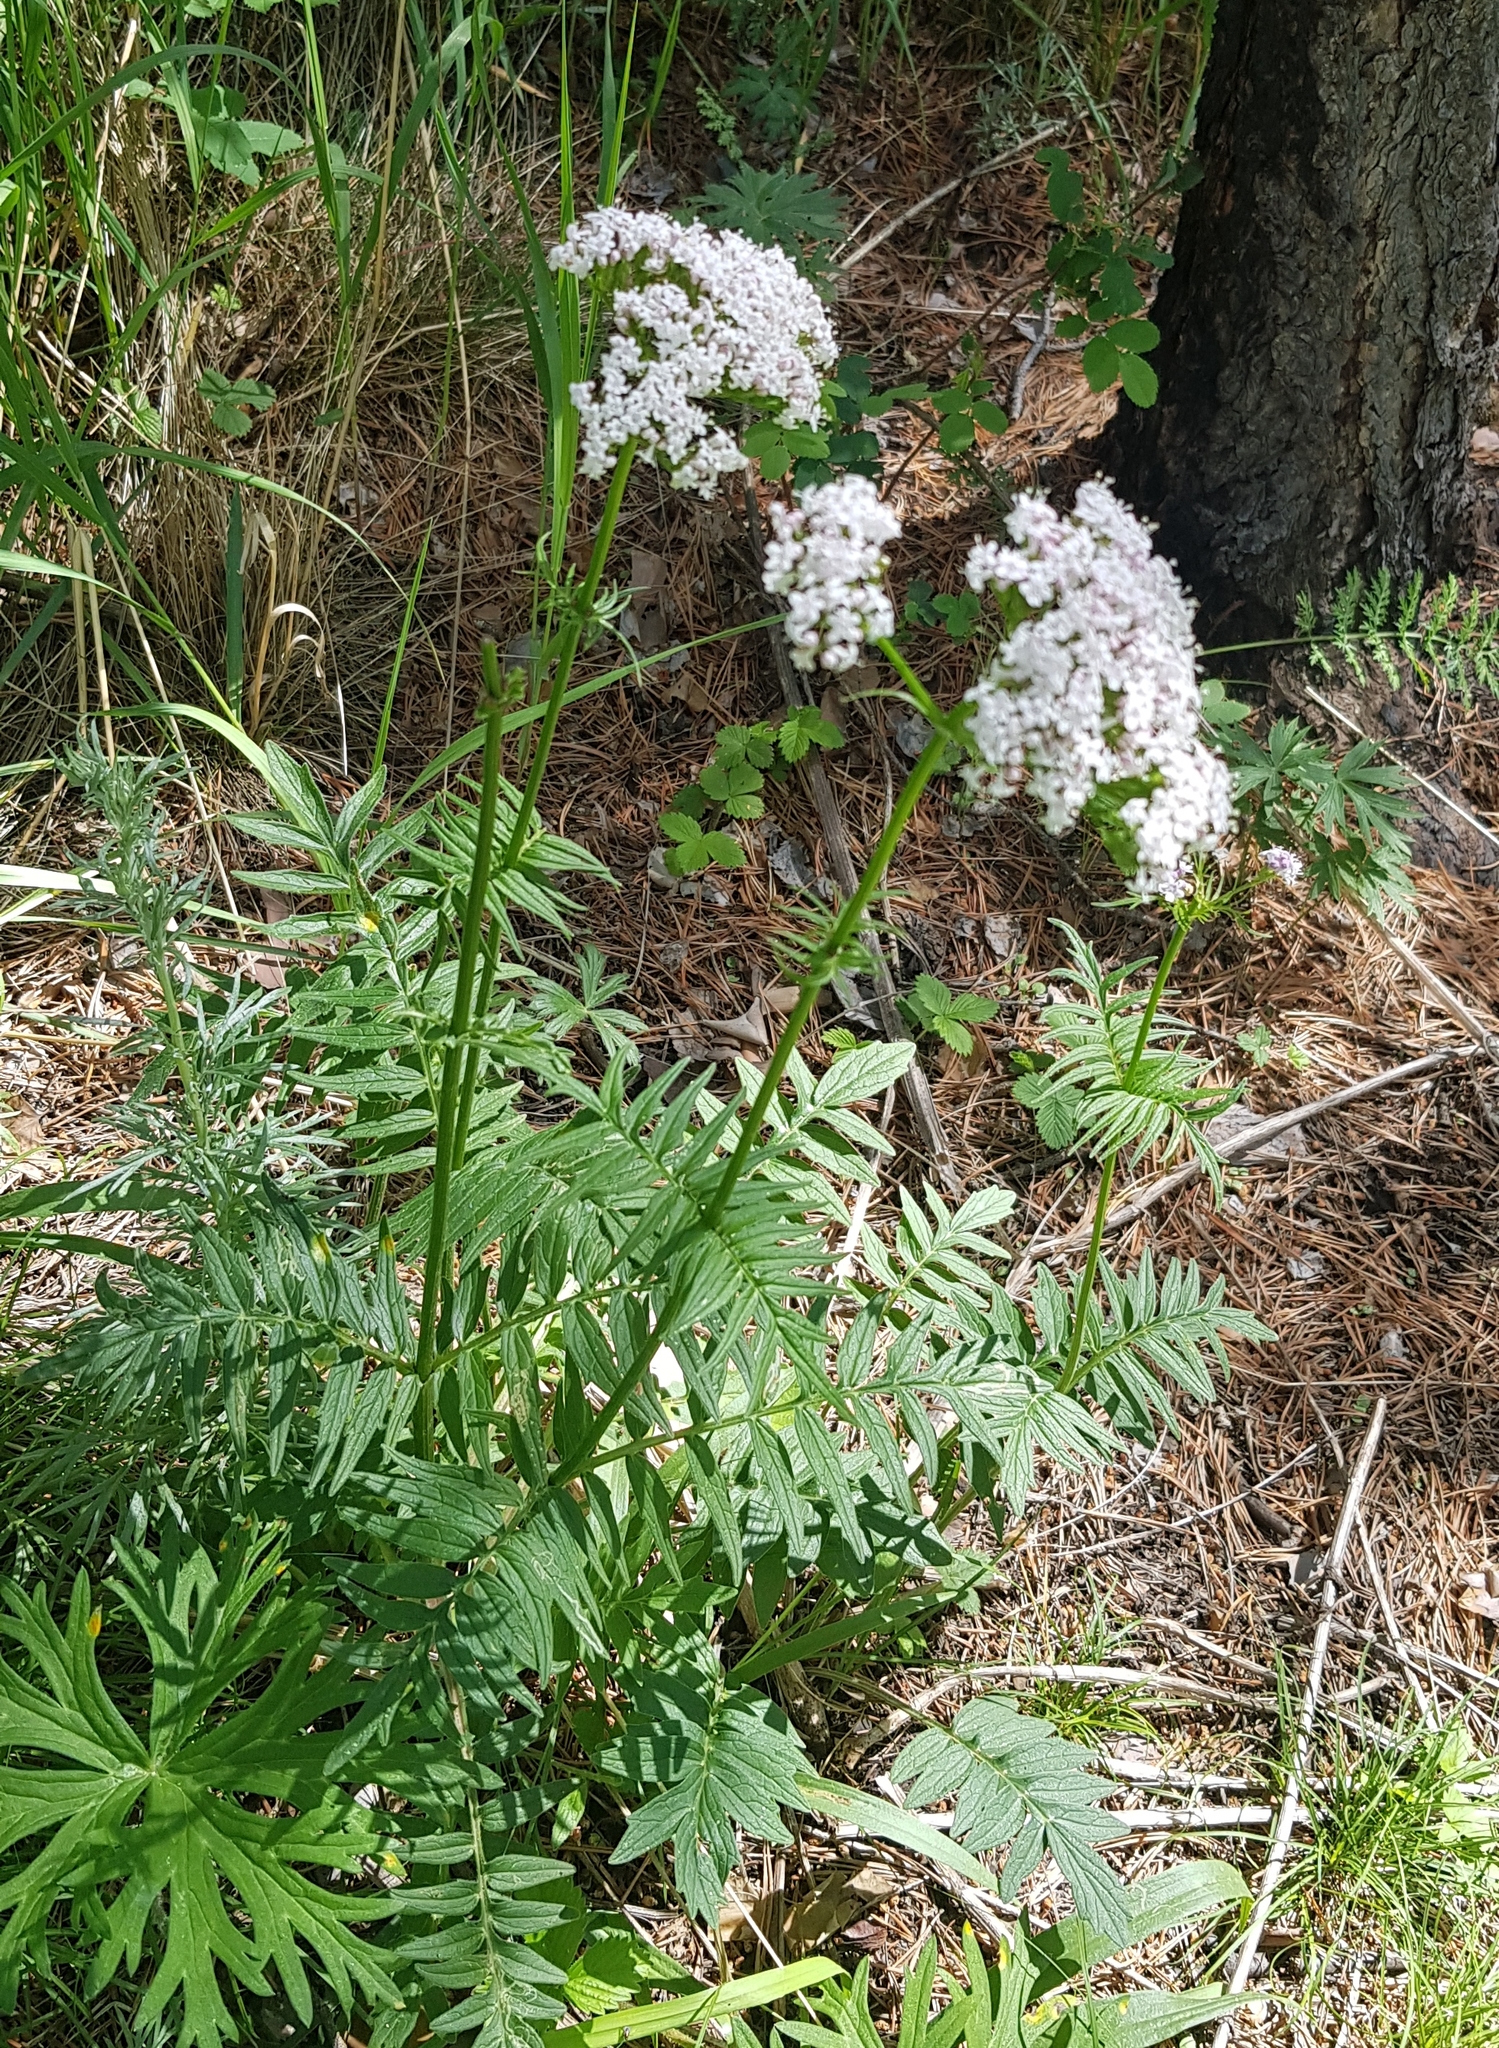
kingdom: Plantae
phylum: Tracheophyta
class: Magnoliopsida
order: Dipsacales
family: Caprifoliaceae
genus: Valeriana
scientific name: Valeriana officinalis
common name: Common valerian
